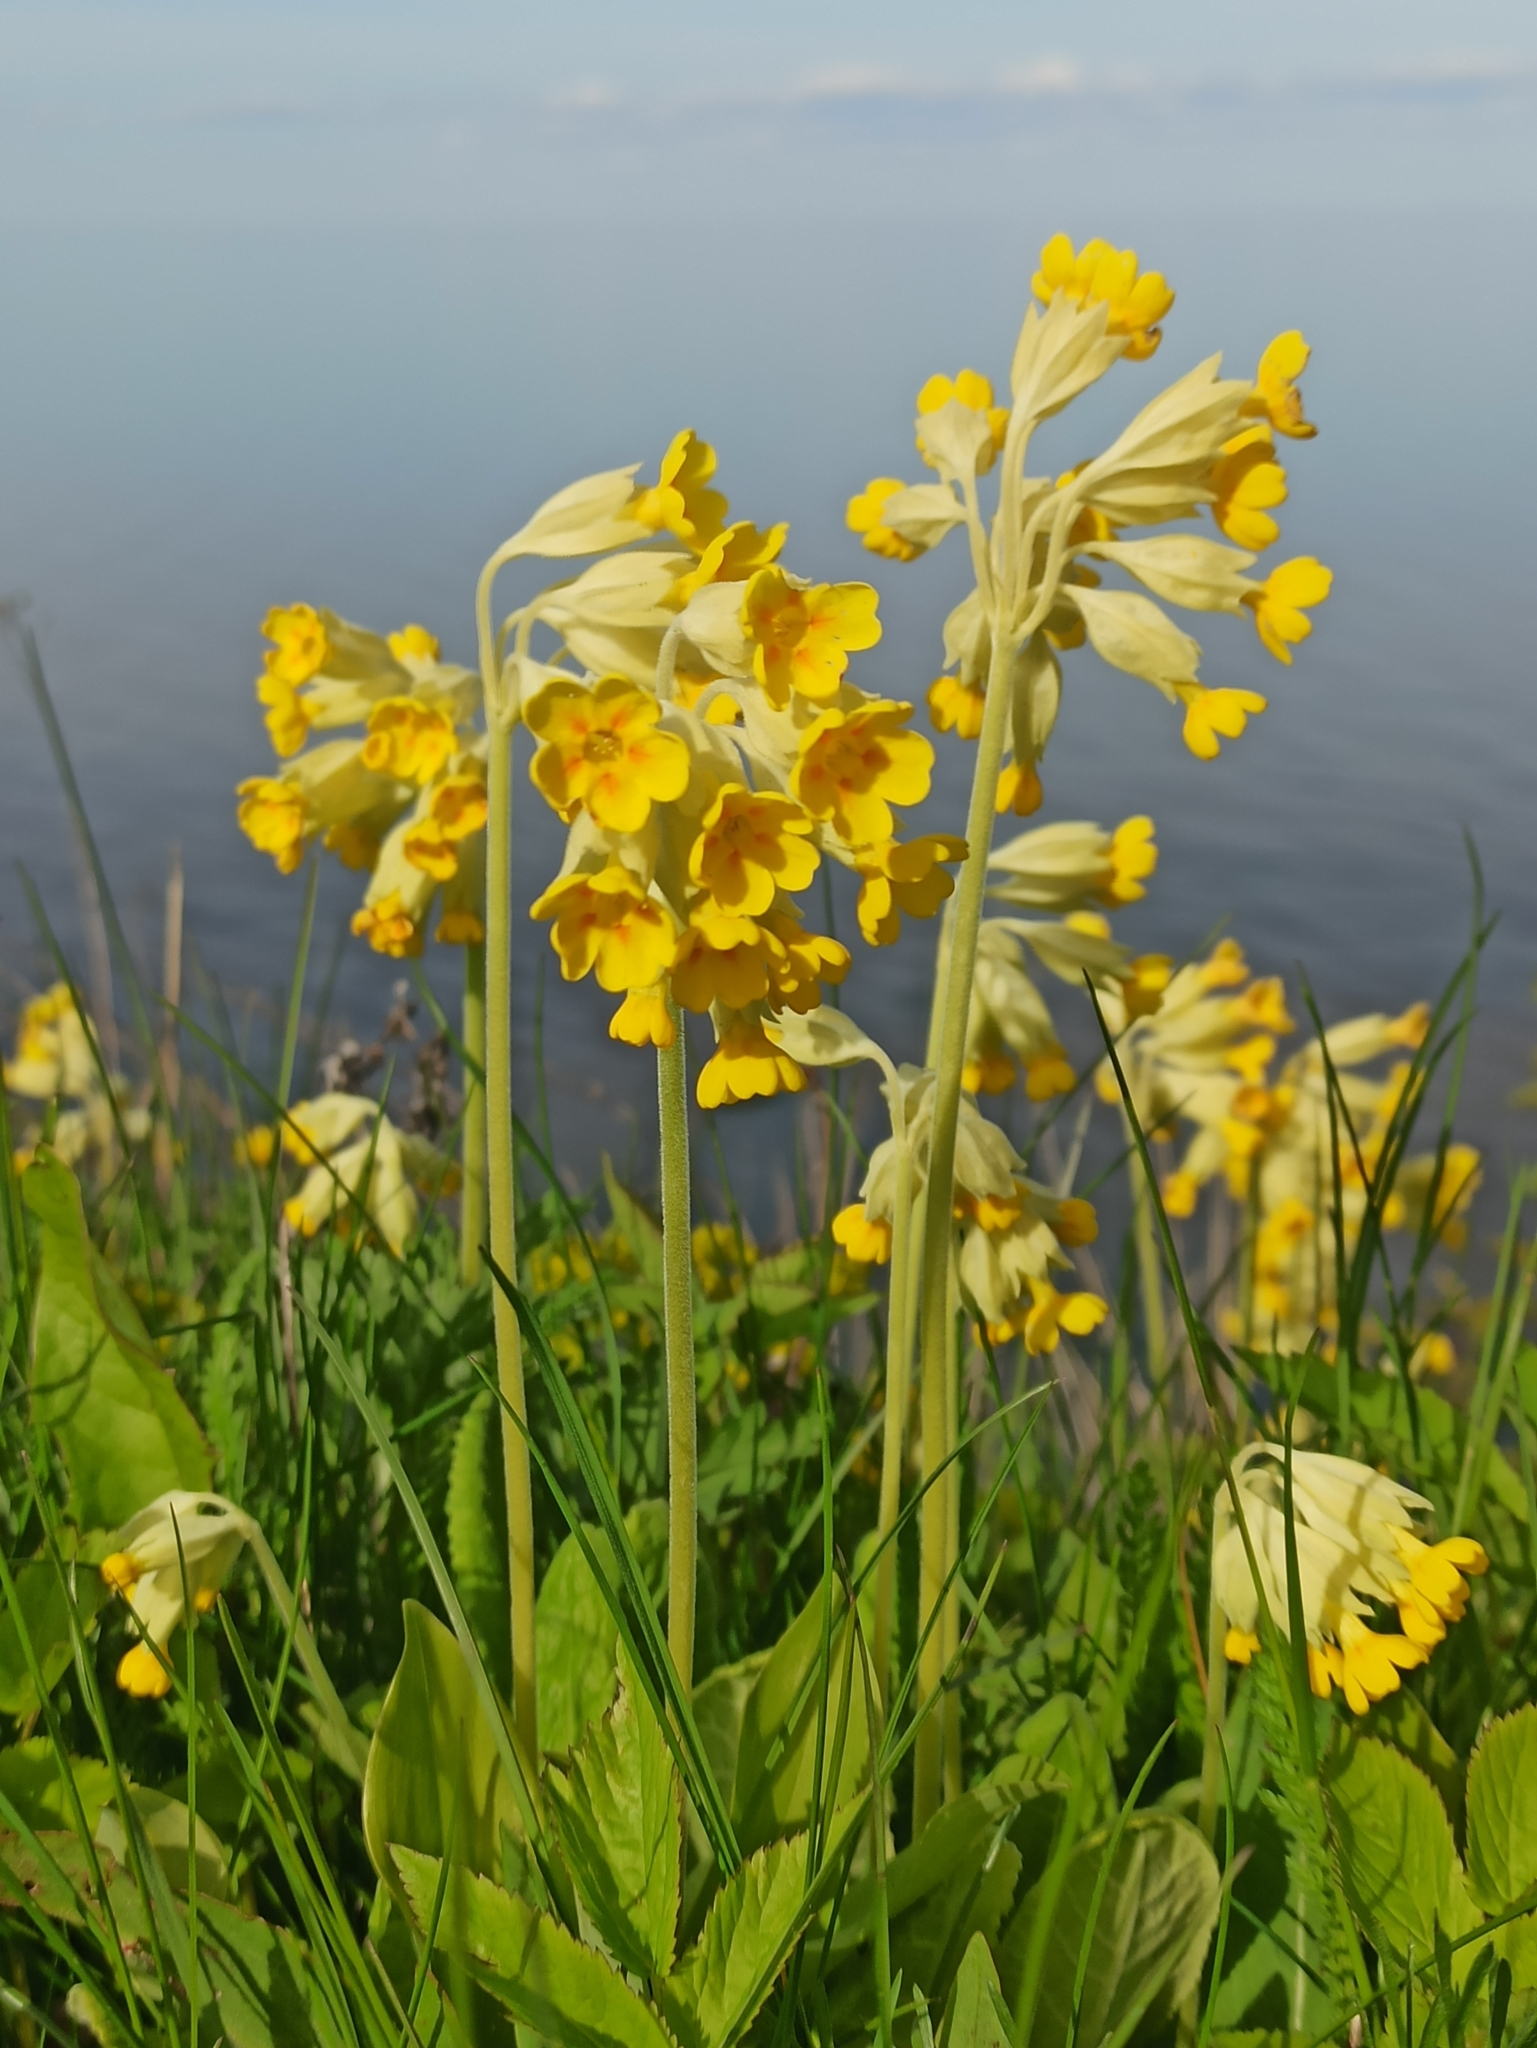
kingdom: Plantae
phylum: Tracheophyta
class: Magnoliopsida
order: Ericales
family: Primulaceae
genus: Primula
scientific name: Primula veris
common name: Cowslip
